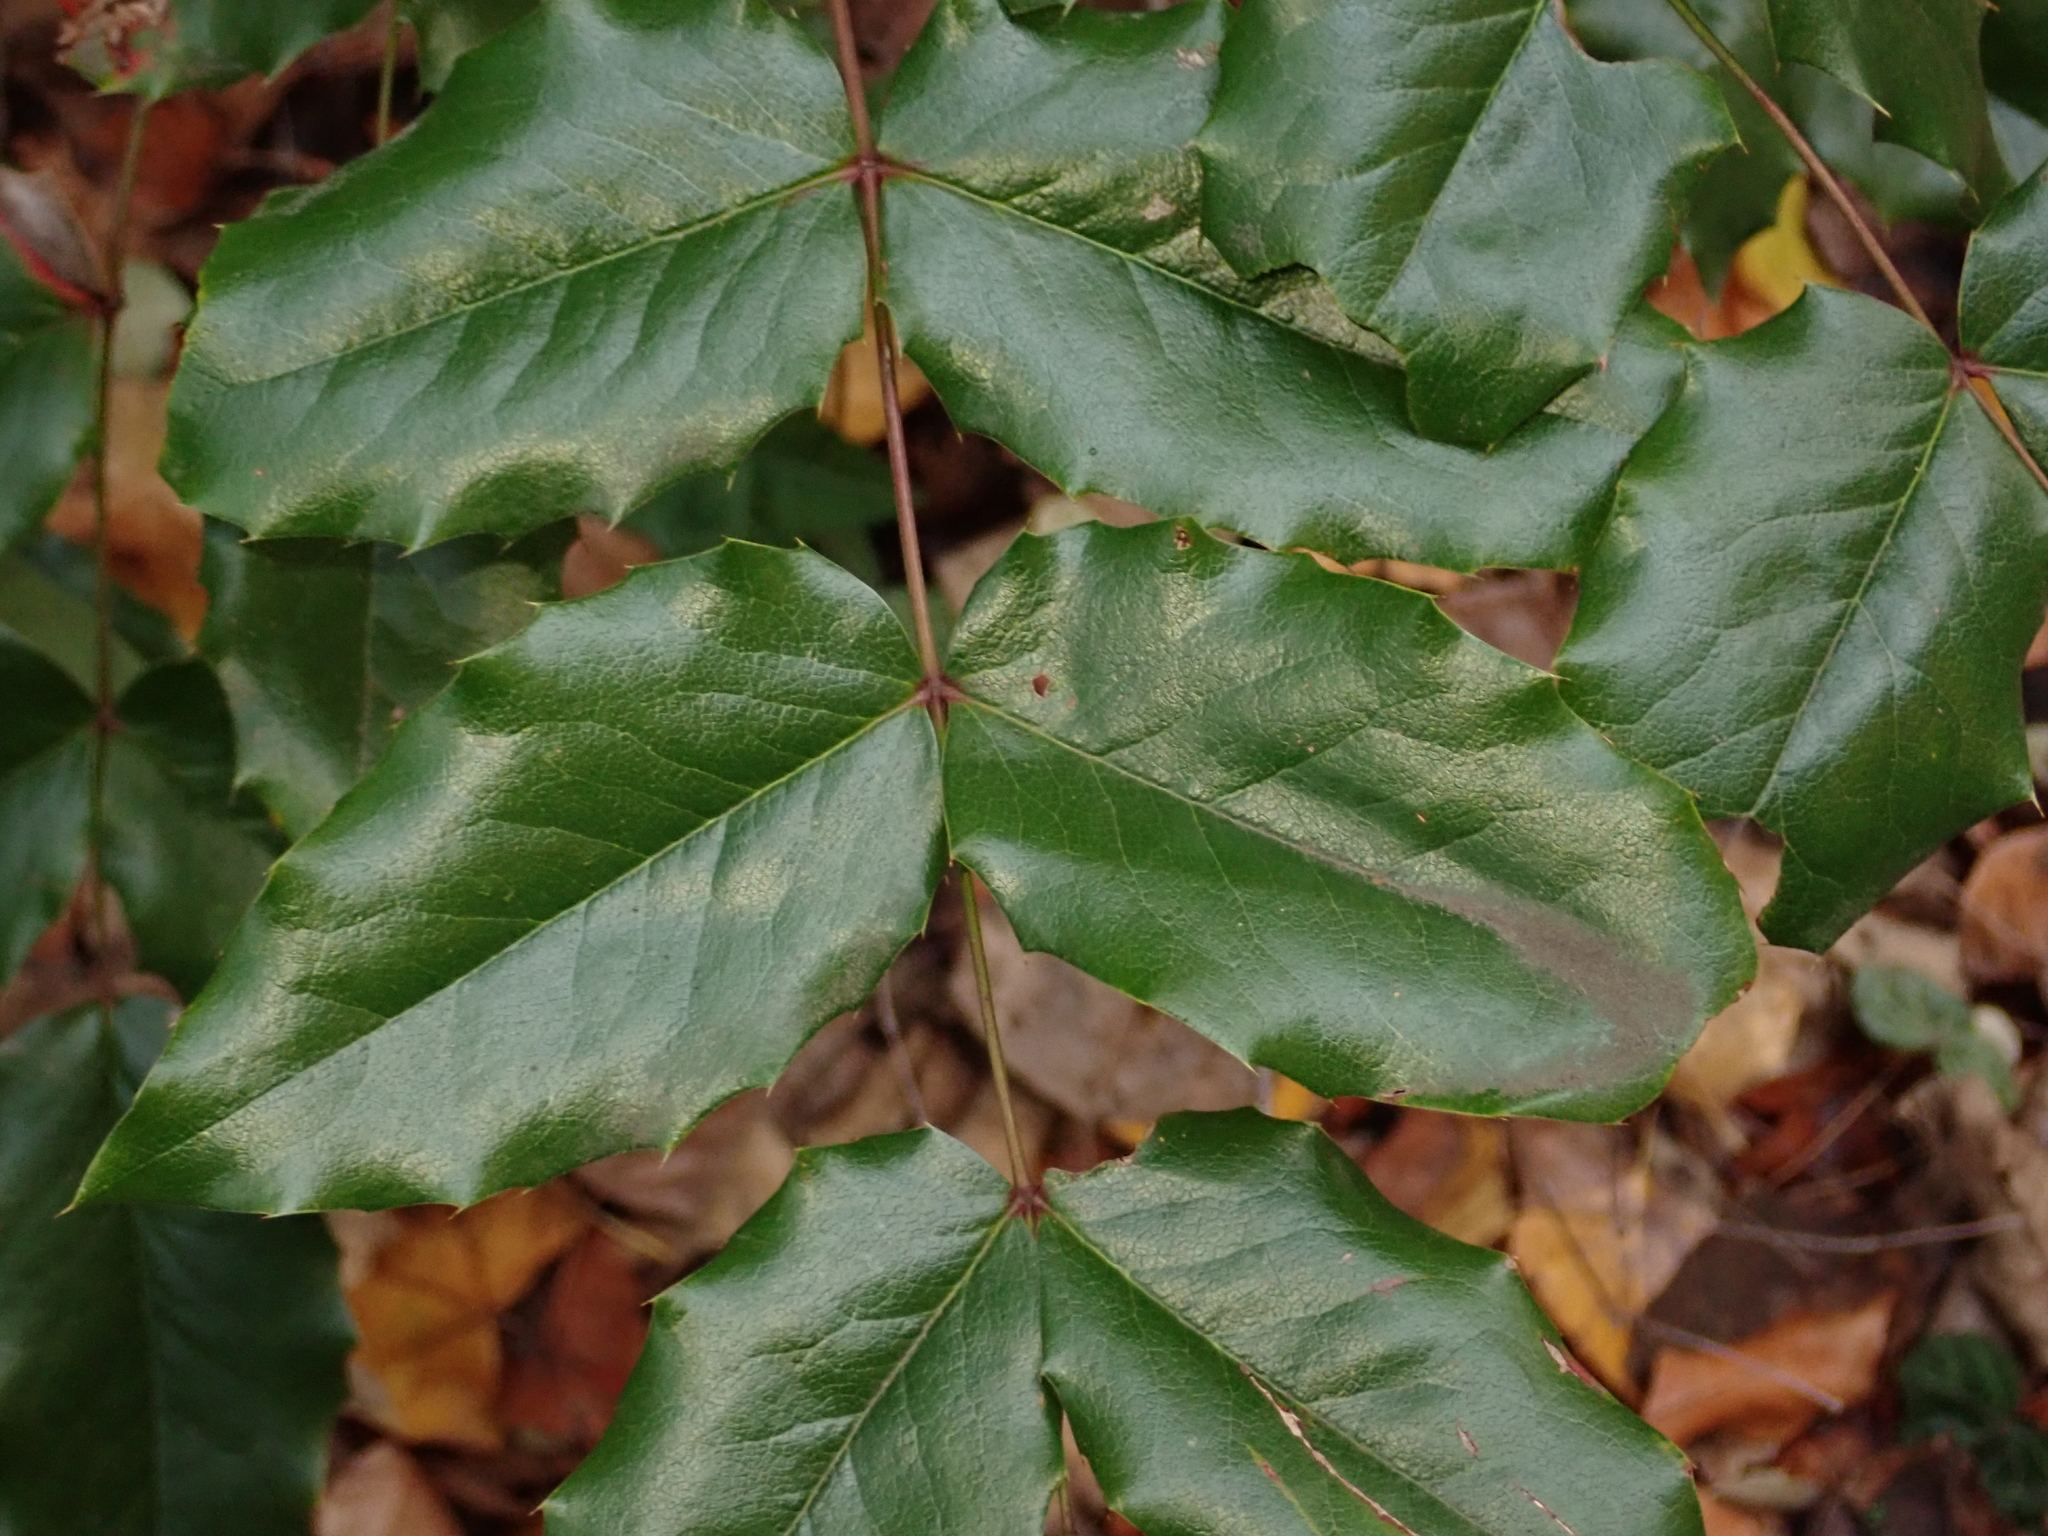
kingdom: Plantae
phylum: Tracheophyta
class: Magnoliopsida
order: Ranunculales
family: Berberidaceae
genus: Mahonia
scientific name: Mahonia aquifolium
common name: Oregon-grape
